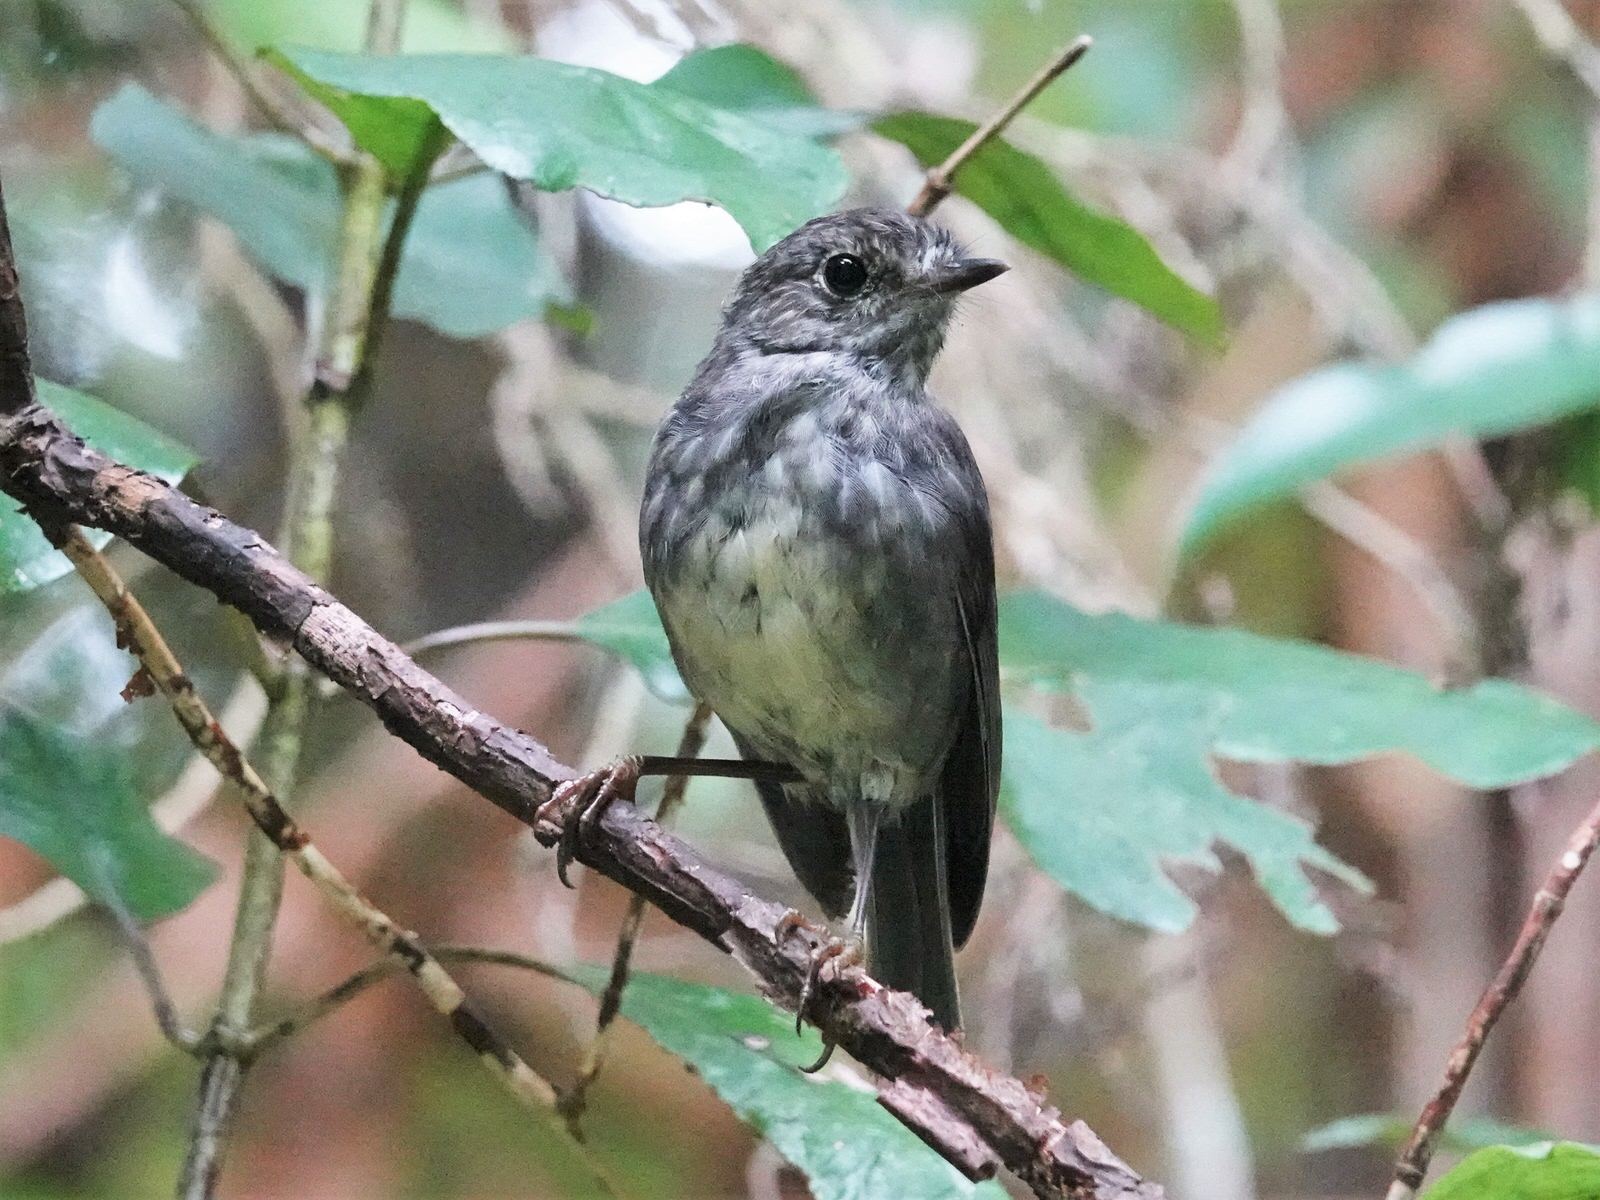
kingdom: Animalia
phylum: Chordata
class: Aves
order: Passeriformes
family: Petroicidae
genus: Petroica
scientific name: Petroica australis
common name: New zealand robin
